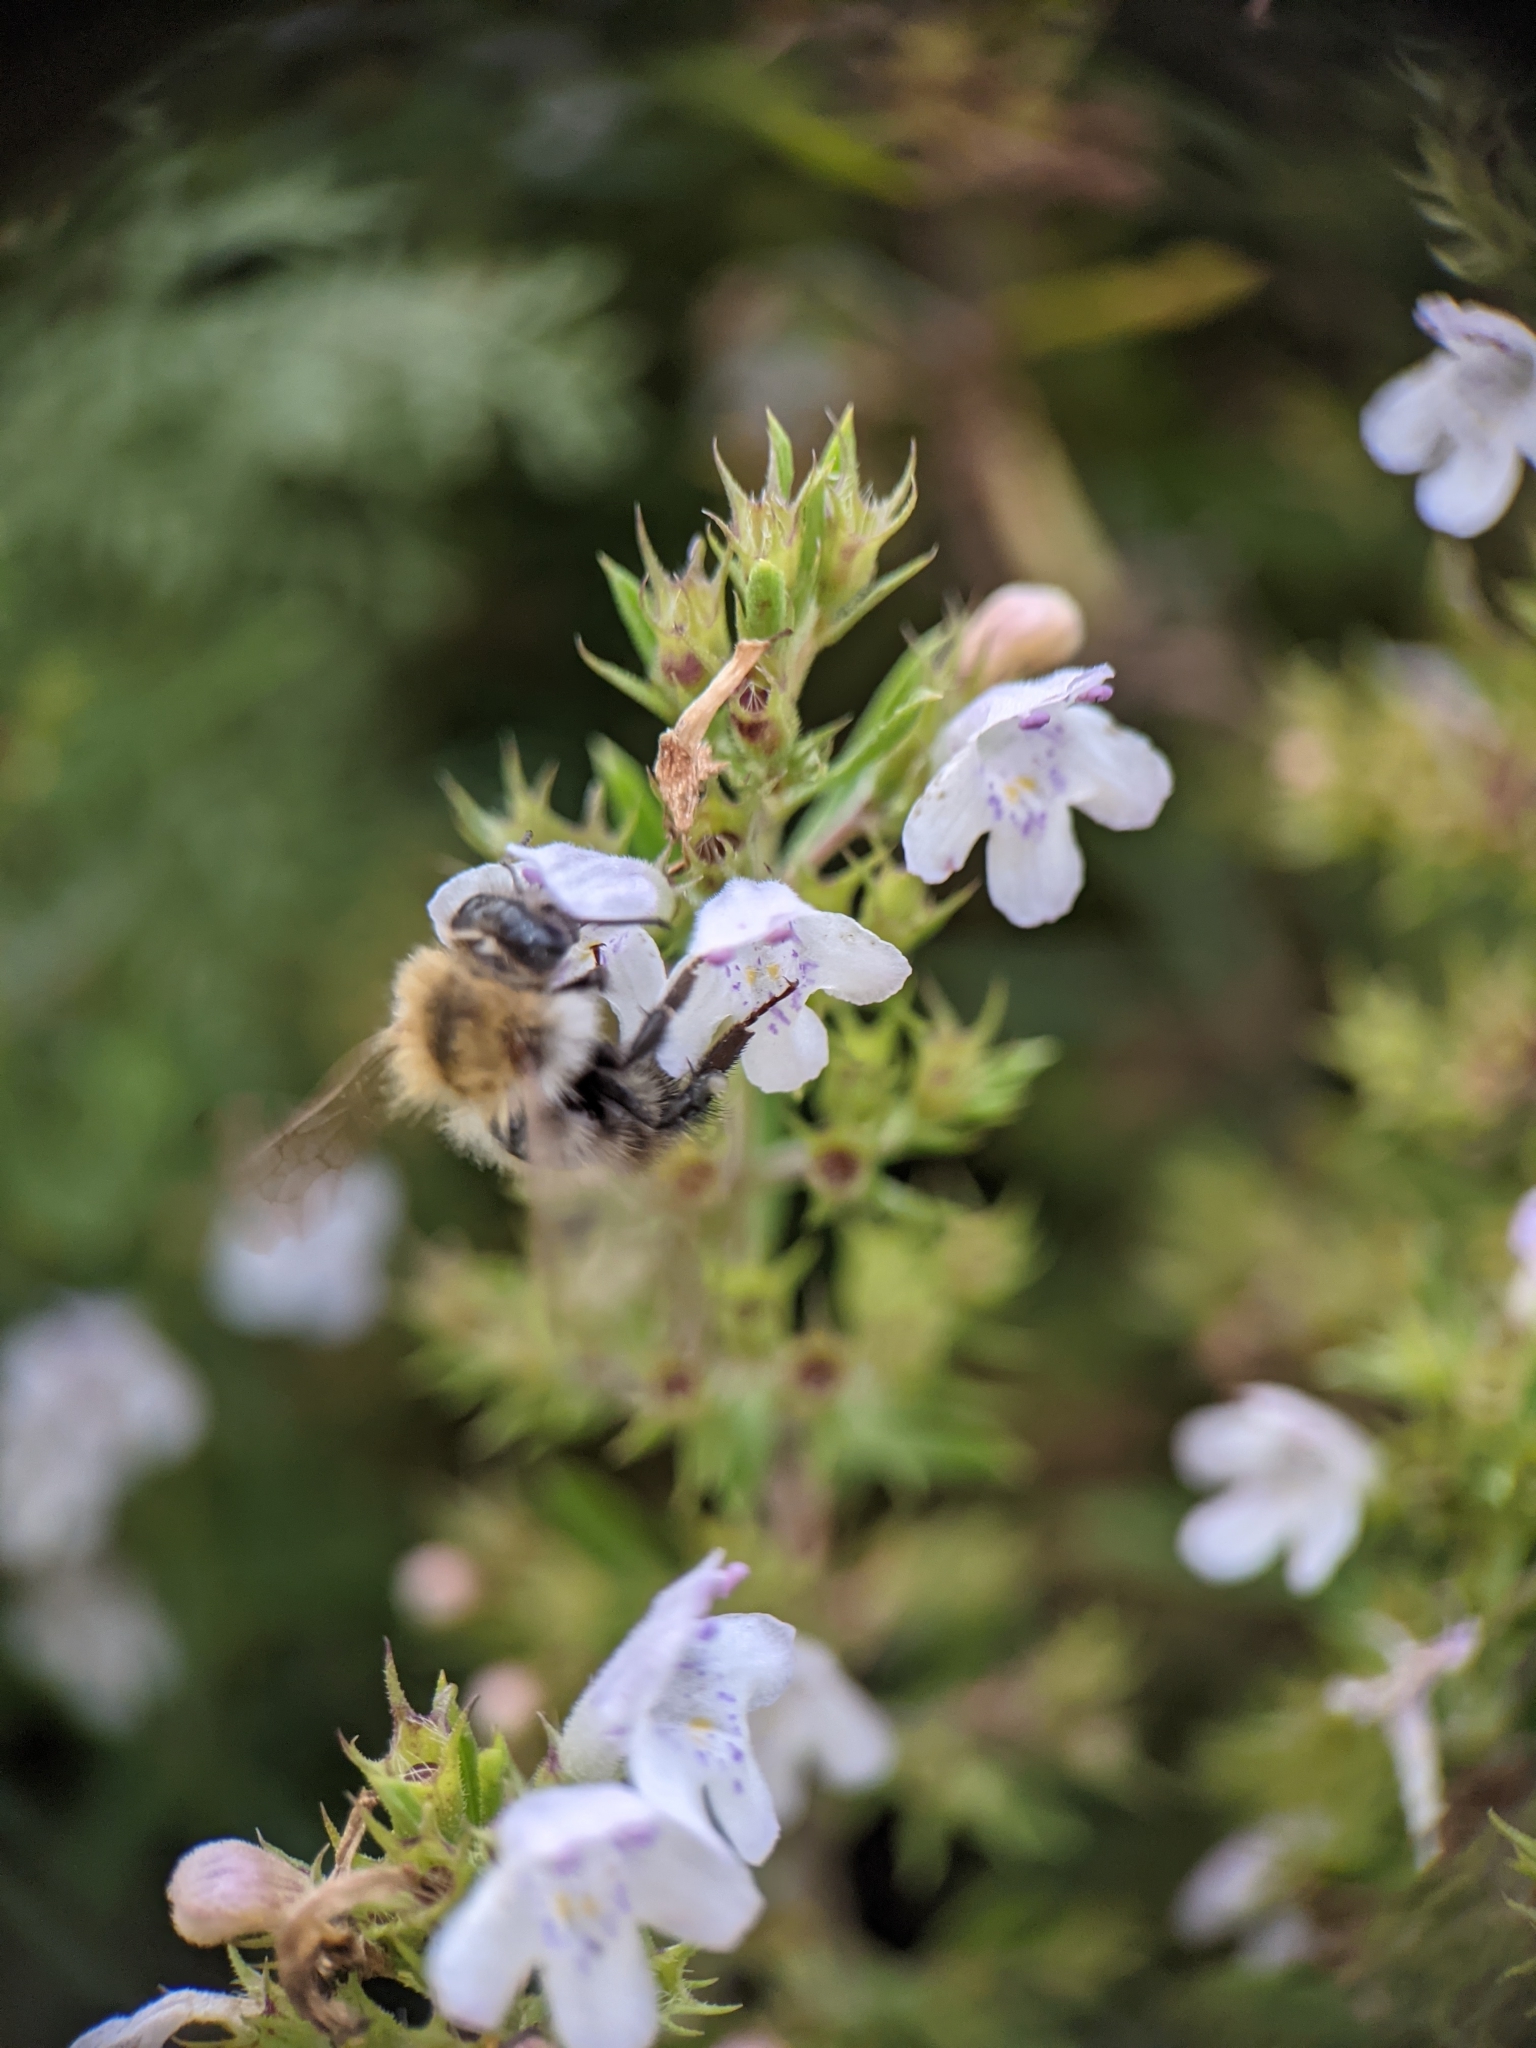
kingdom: Animalia
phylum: Arthropoda
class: Insecta
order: Hymenoptera
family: Apidae
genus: Bombus
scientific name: Bombus pascuorum
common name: Common carder bee
